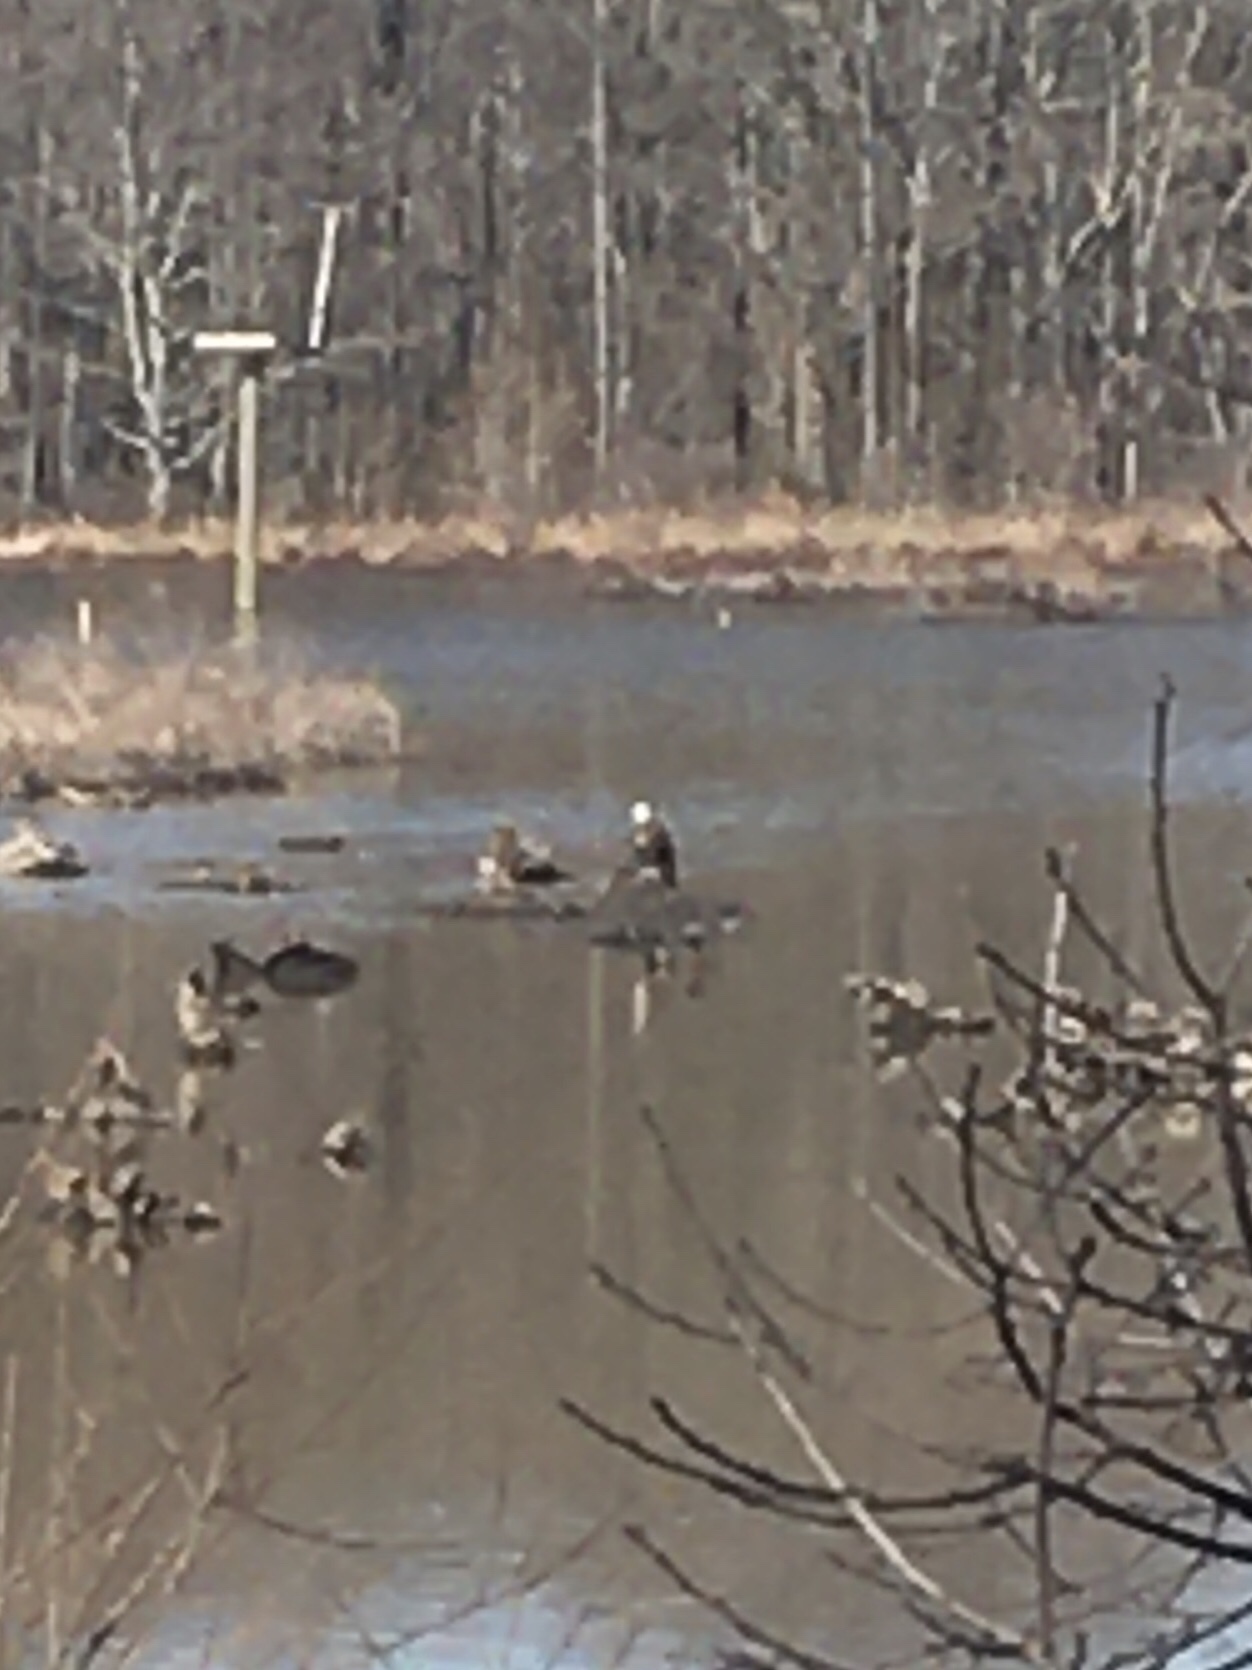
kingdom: Animalia
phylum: Chordata
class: Aves
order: Accipitriformes
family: Accipitridae
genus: Haliaeetus
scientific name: Haliaeetus leucocephalus
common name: Bald eagle
